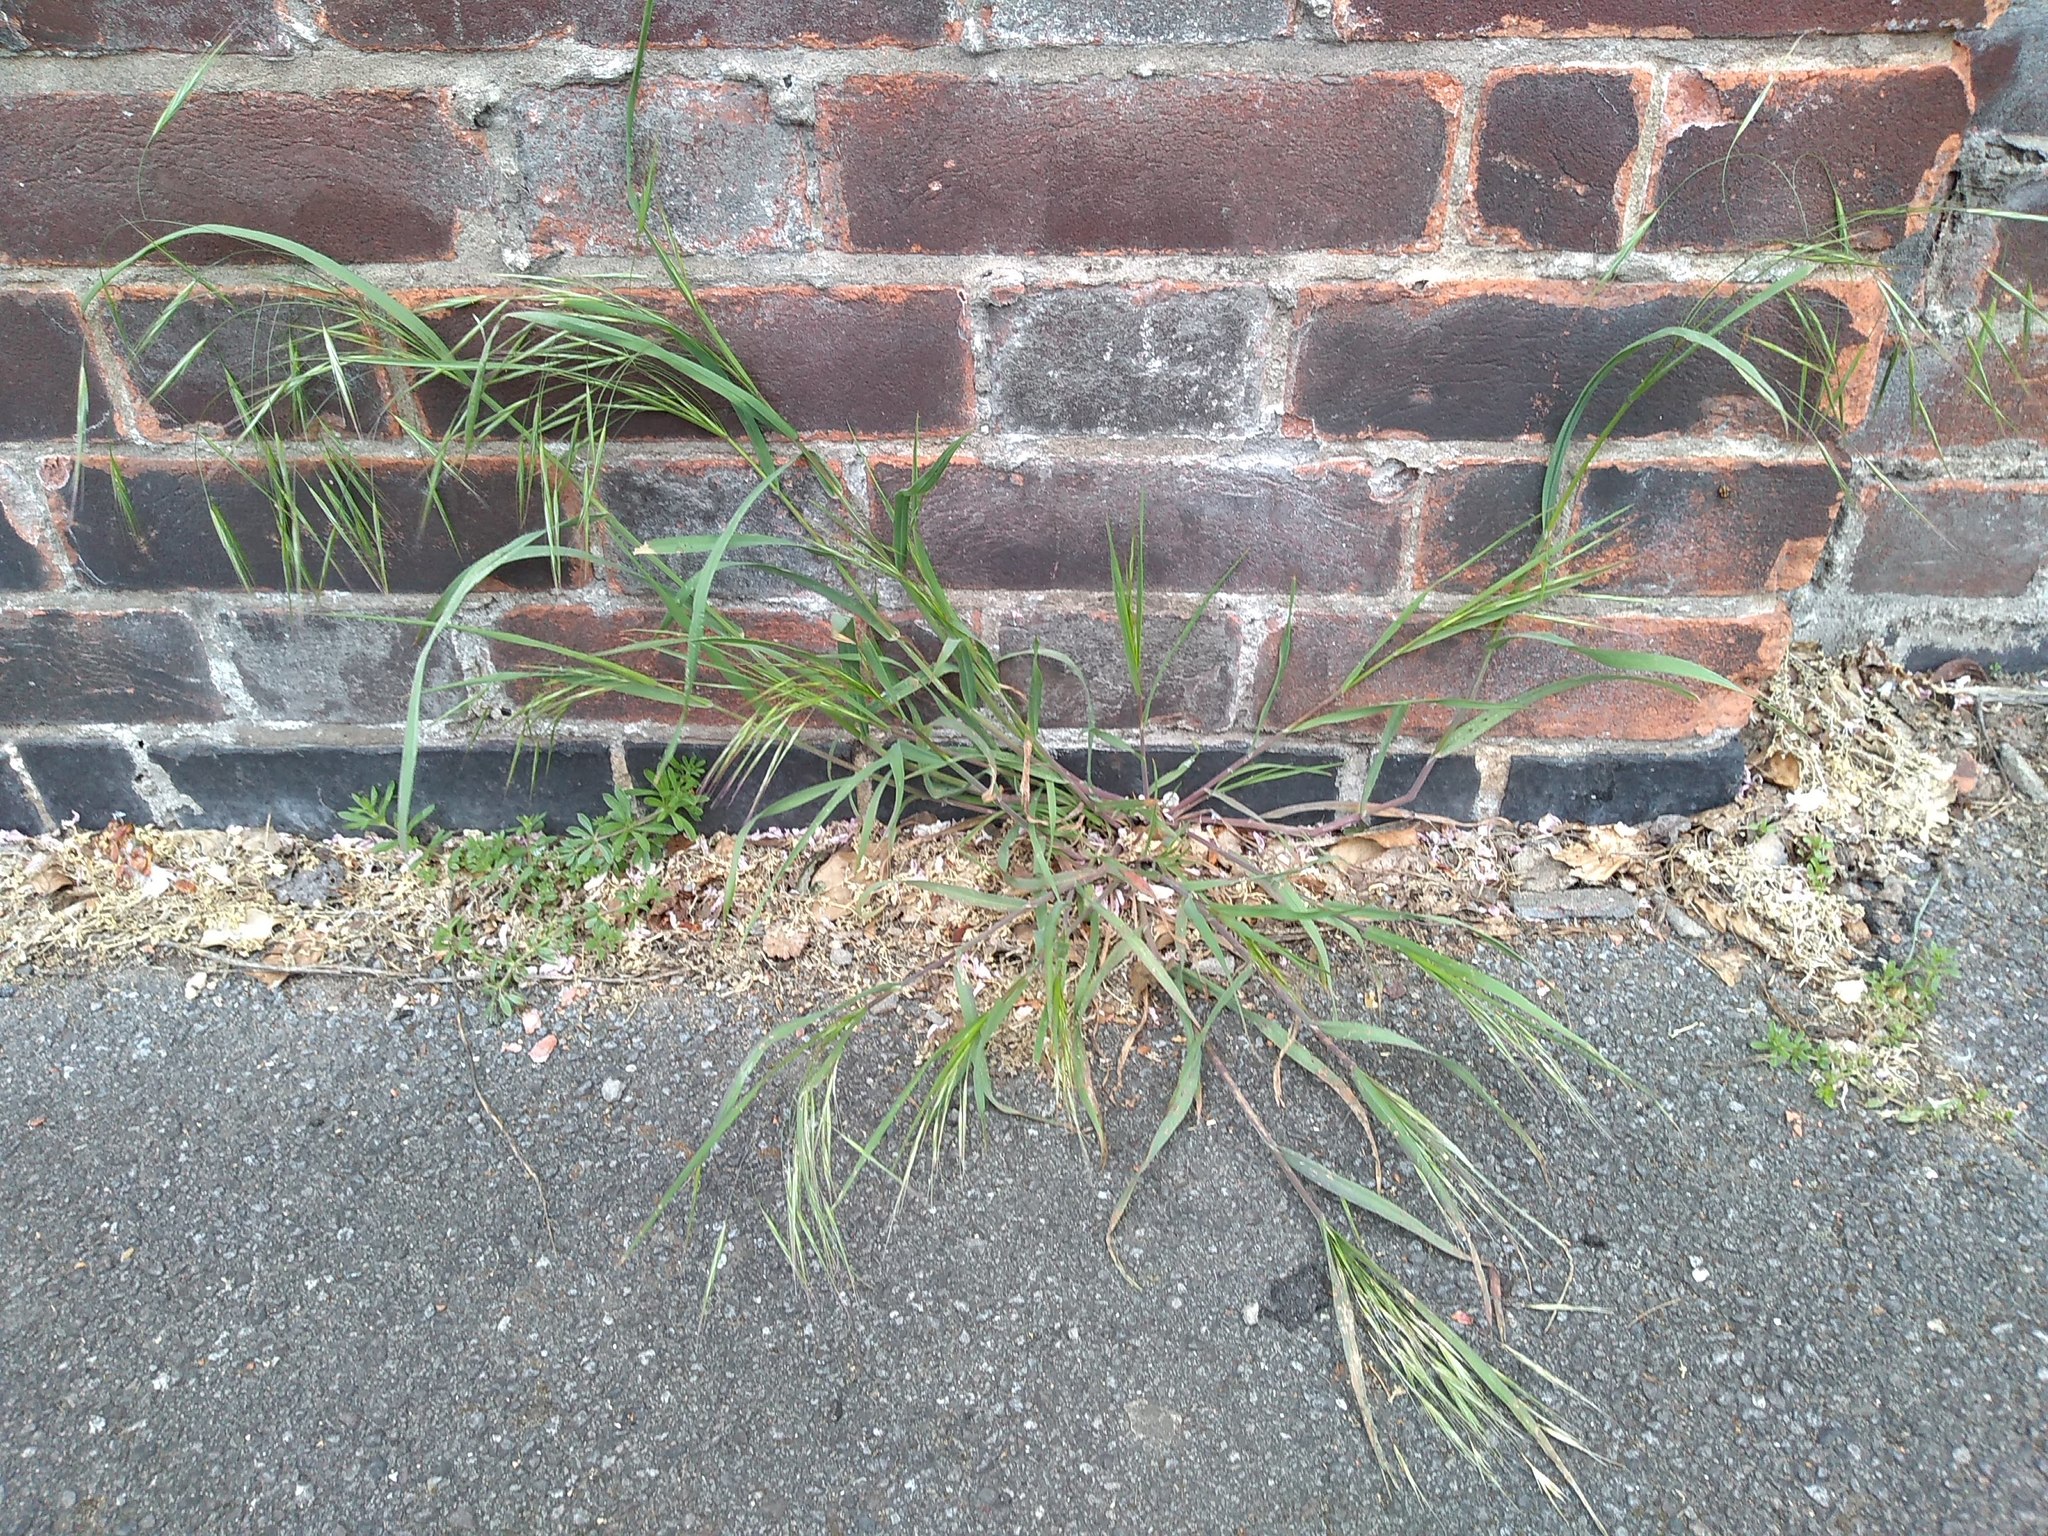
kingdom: Plantae
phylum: Tracheophyta
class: Liliopsida
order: Poales
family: Poaceae
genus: Bromus
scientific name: Bromus sterilis
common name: Poverty brome
